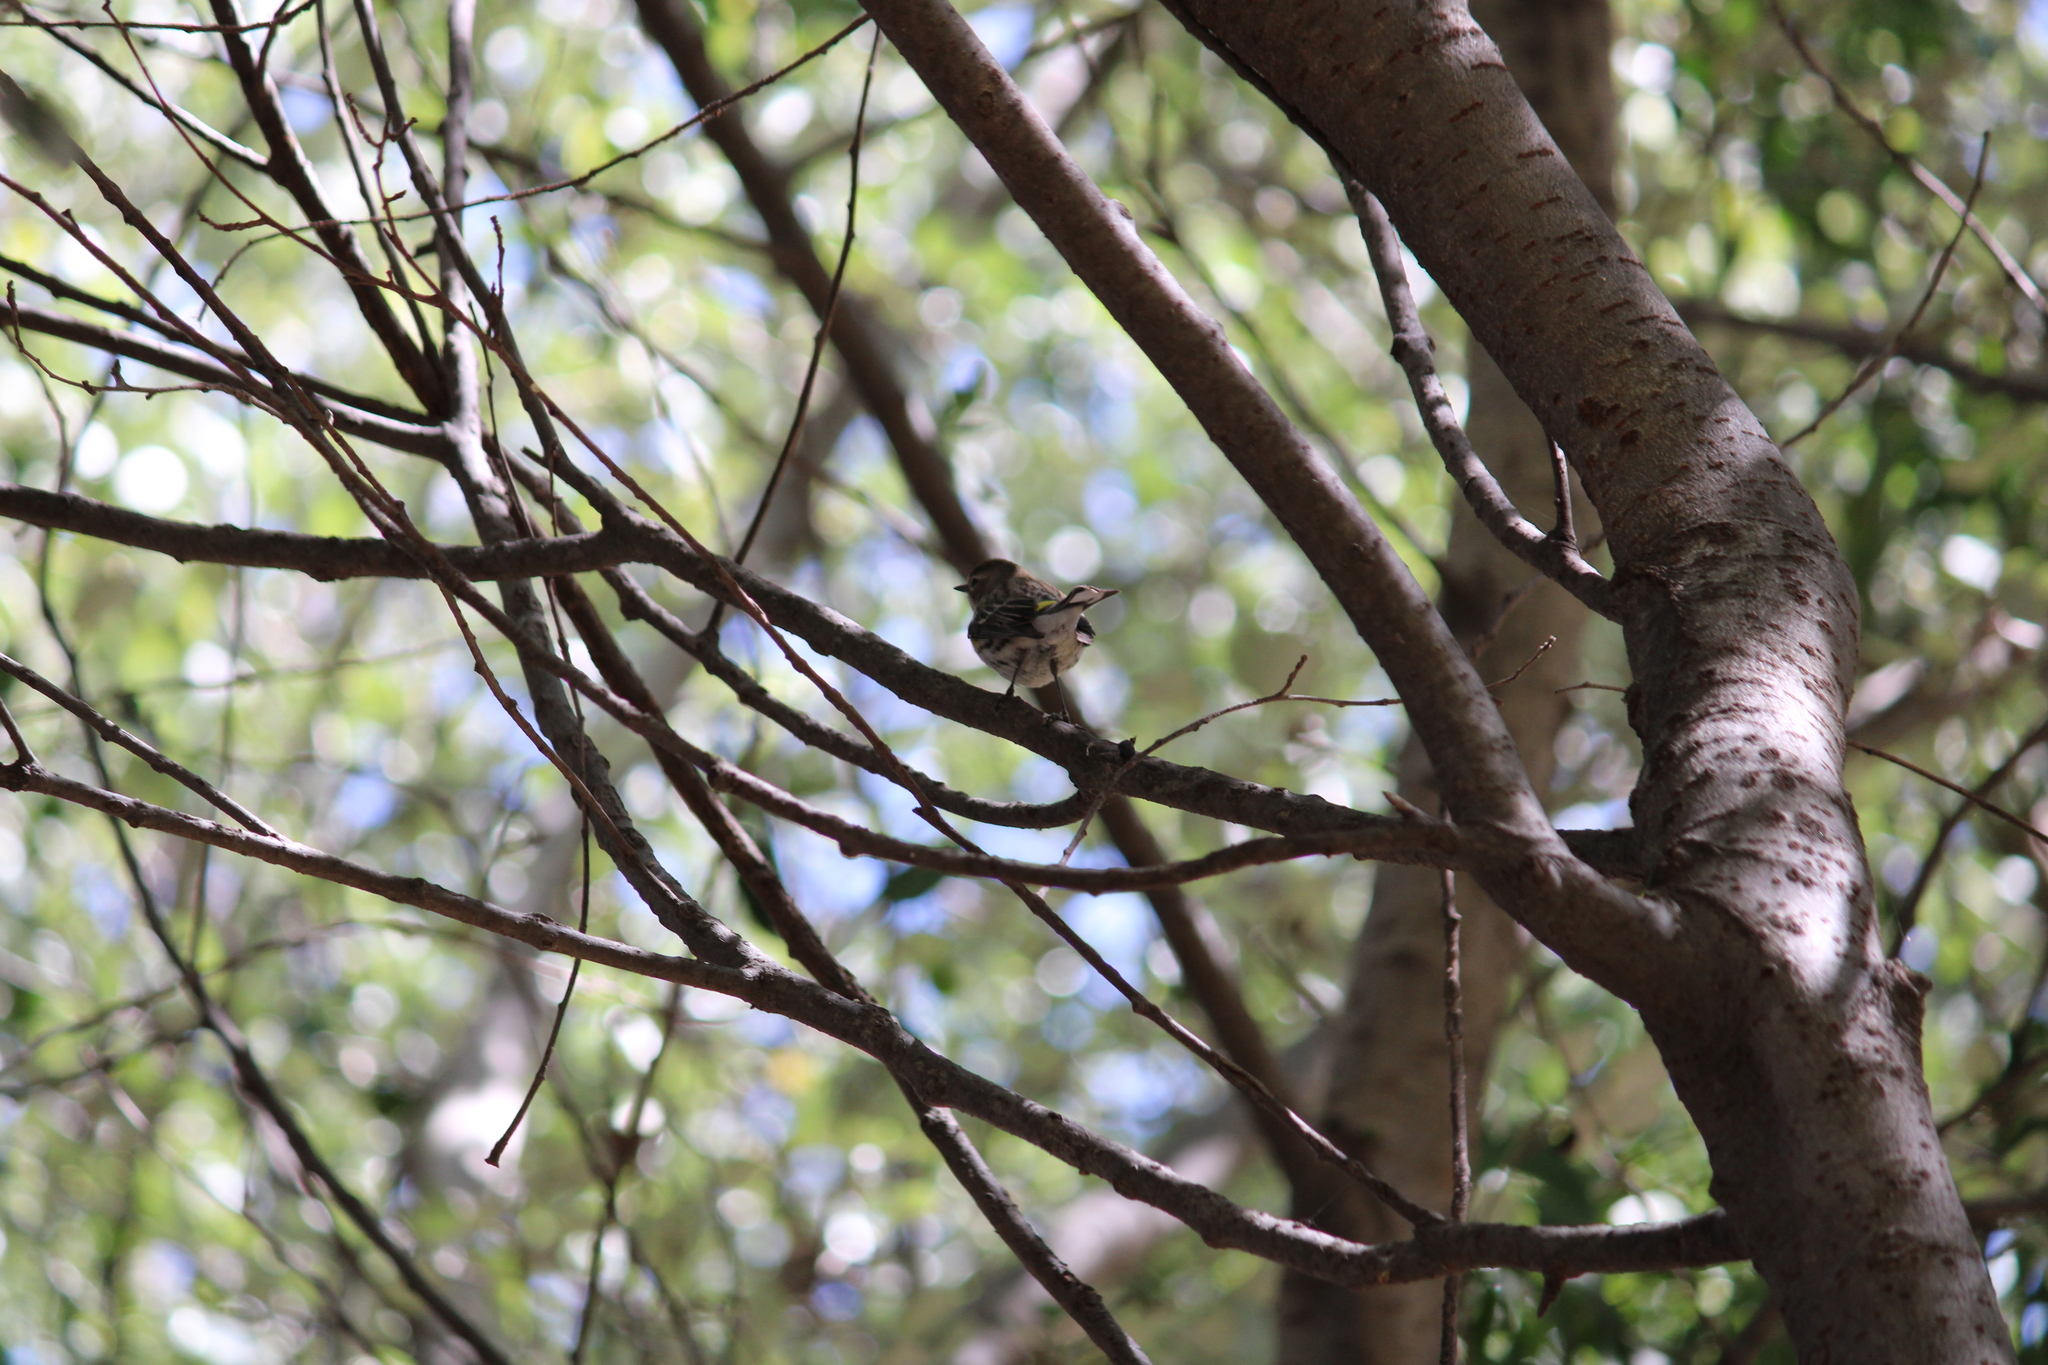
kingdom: Animalia
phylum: Chordata
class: Aves
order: Passeriformes
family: Parulidae
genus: Setophaga
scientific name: Setophaga coronata
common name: Myrtle warbler
